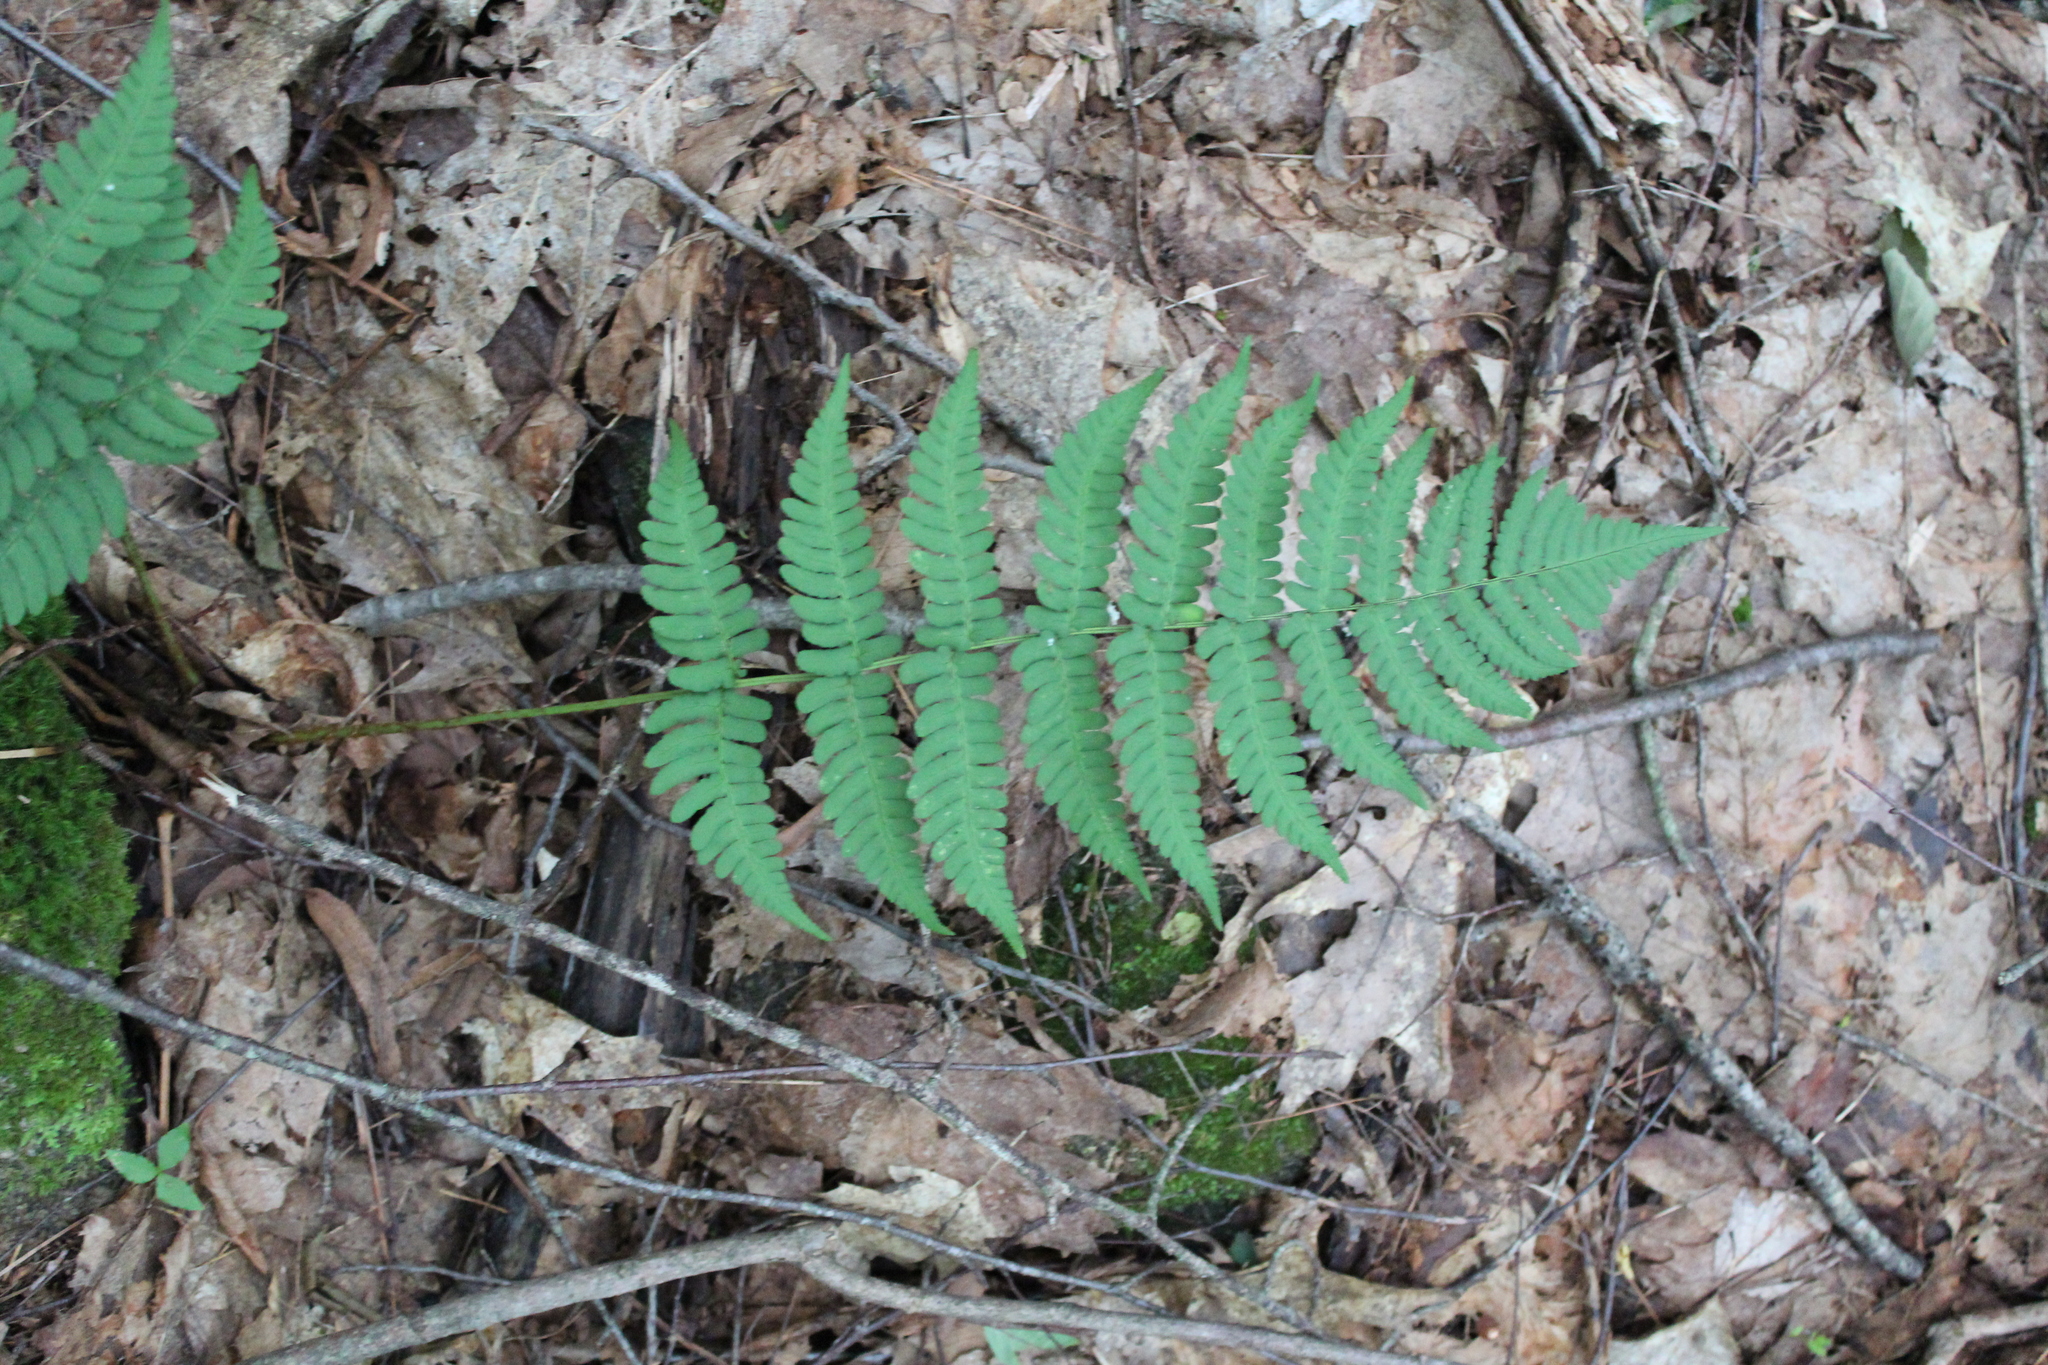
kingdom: Plantae
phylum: Tracheophyta
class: Polypodiopsida
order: Polypodiales
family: Dryopteridaceae
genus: Dryopteris
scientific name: Dryopteris marginalis
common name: Marginal wood fern
